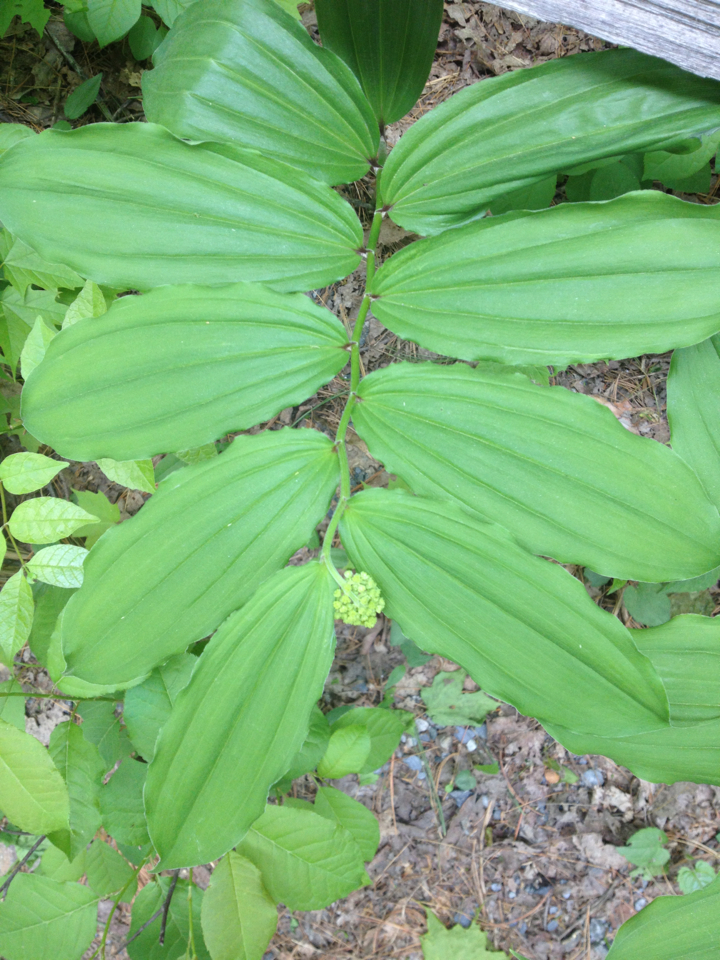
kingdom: Plantae
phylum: Tracheophyta
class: Liliopsida
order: Asparagales
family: Asparagaceae
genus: Maianthemum
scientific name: Maianthemum racemosum
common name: False spikenard
